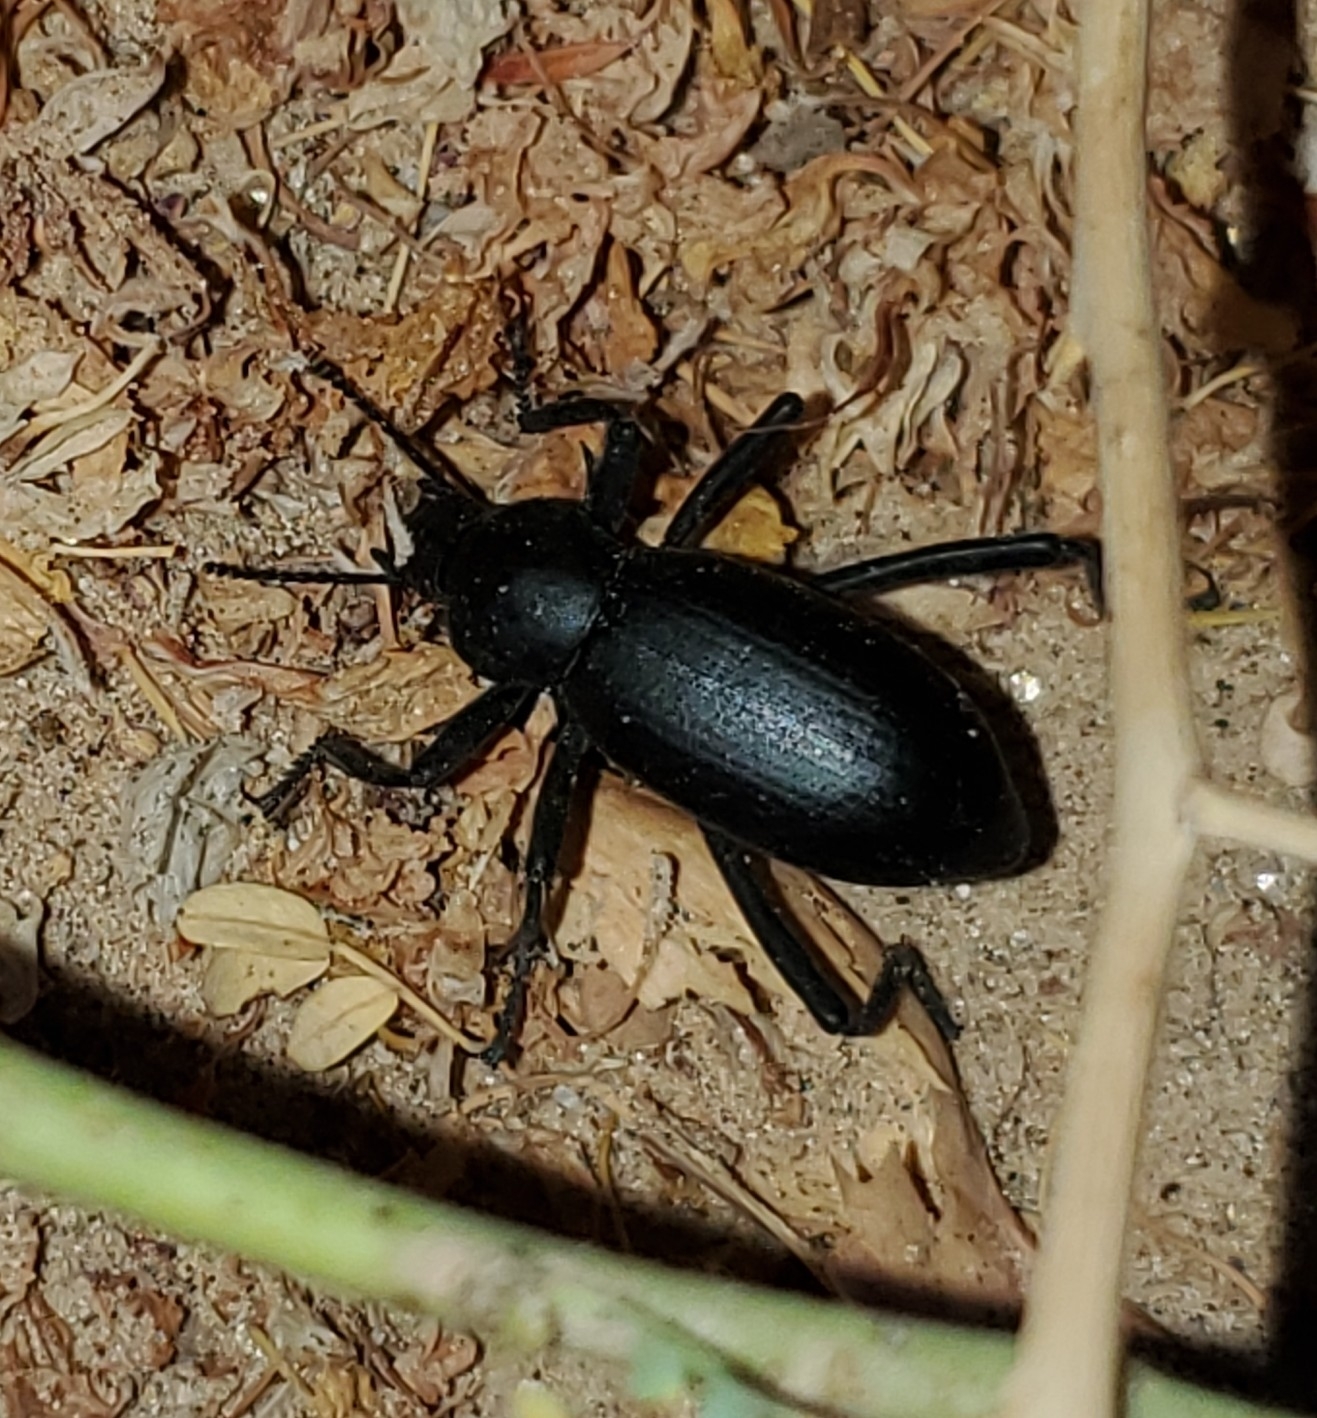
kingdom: Animalia
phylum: Arthropoda
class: Insecta
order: Coleoptera
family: Tenebrionidae
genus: Eleodes
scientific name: Eleodes armata
